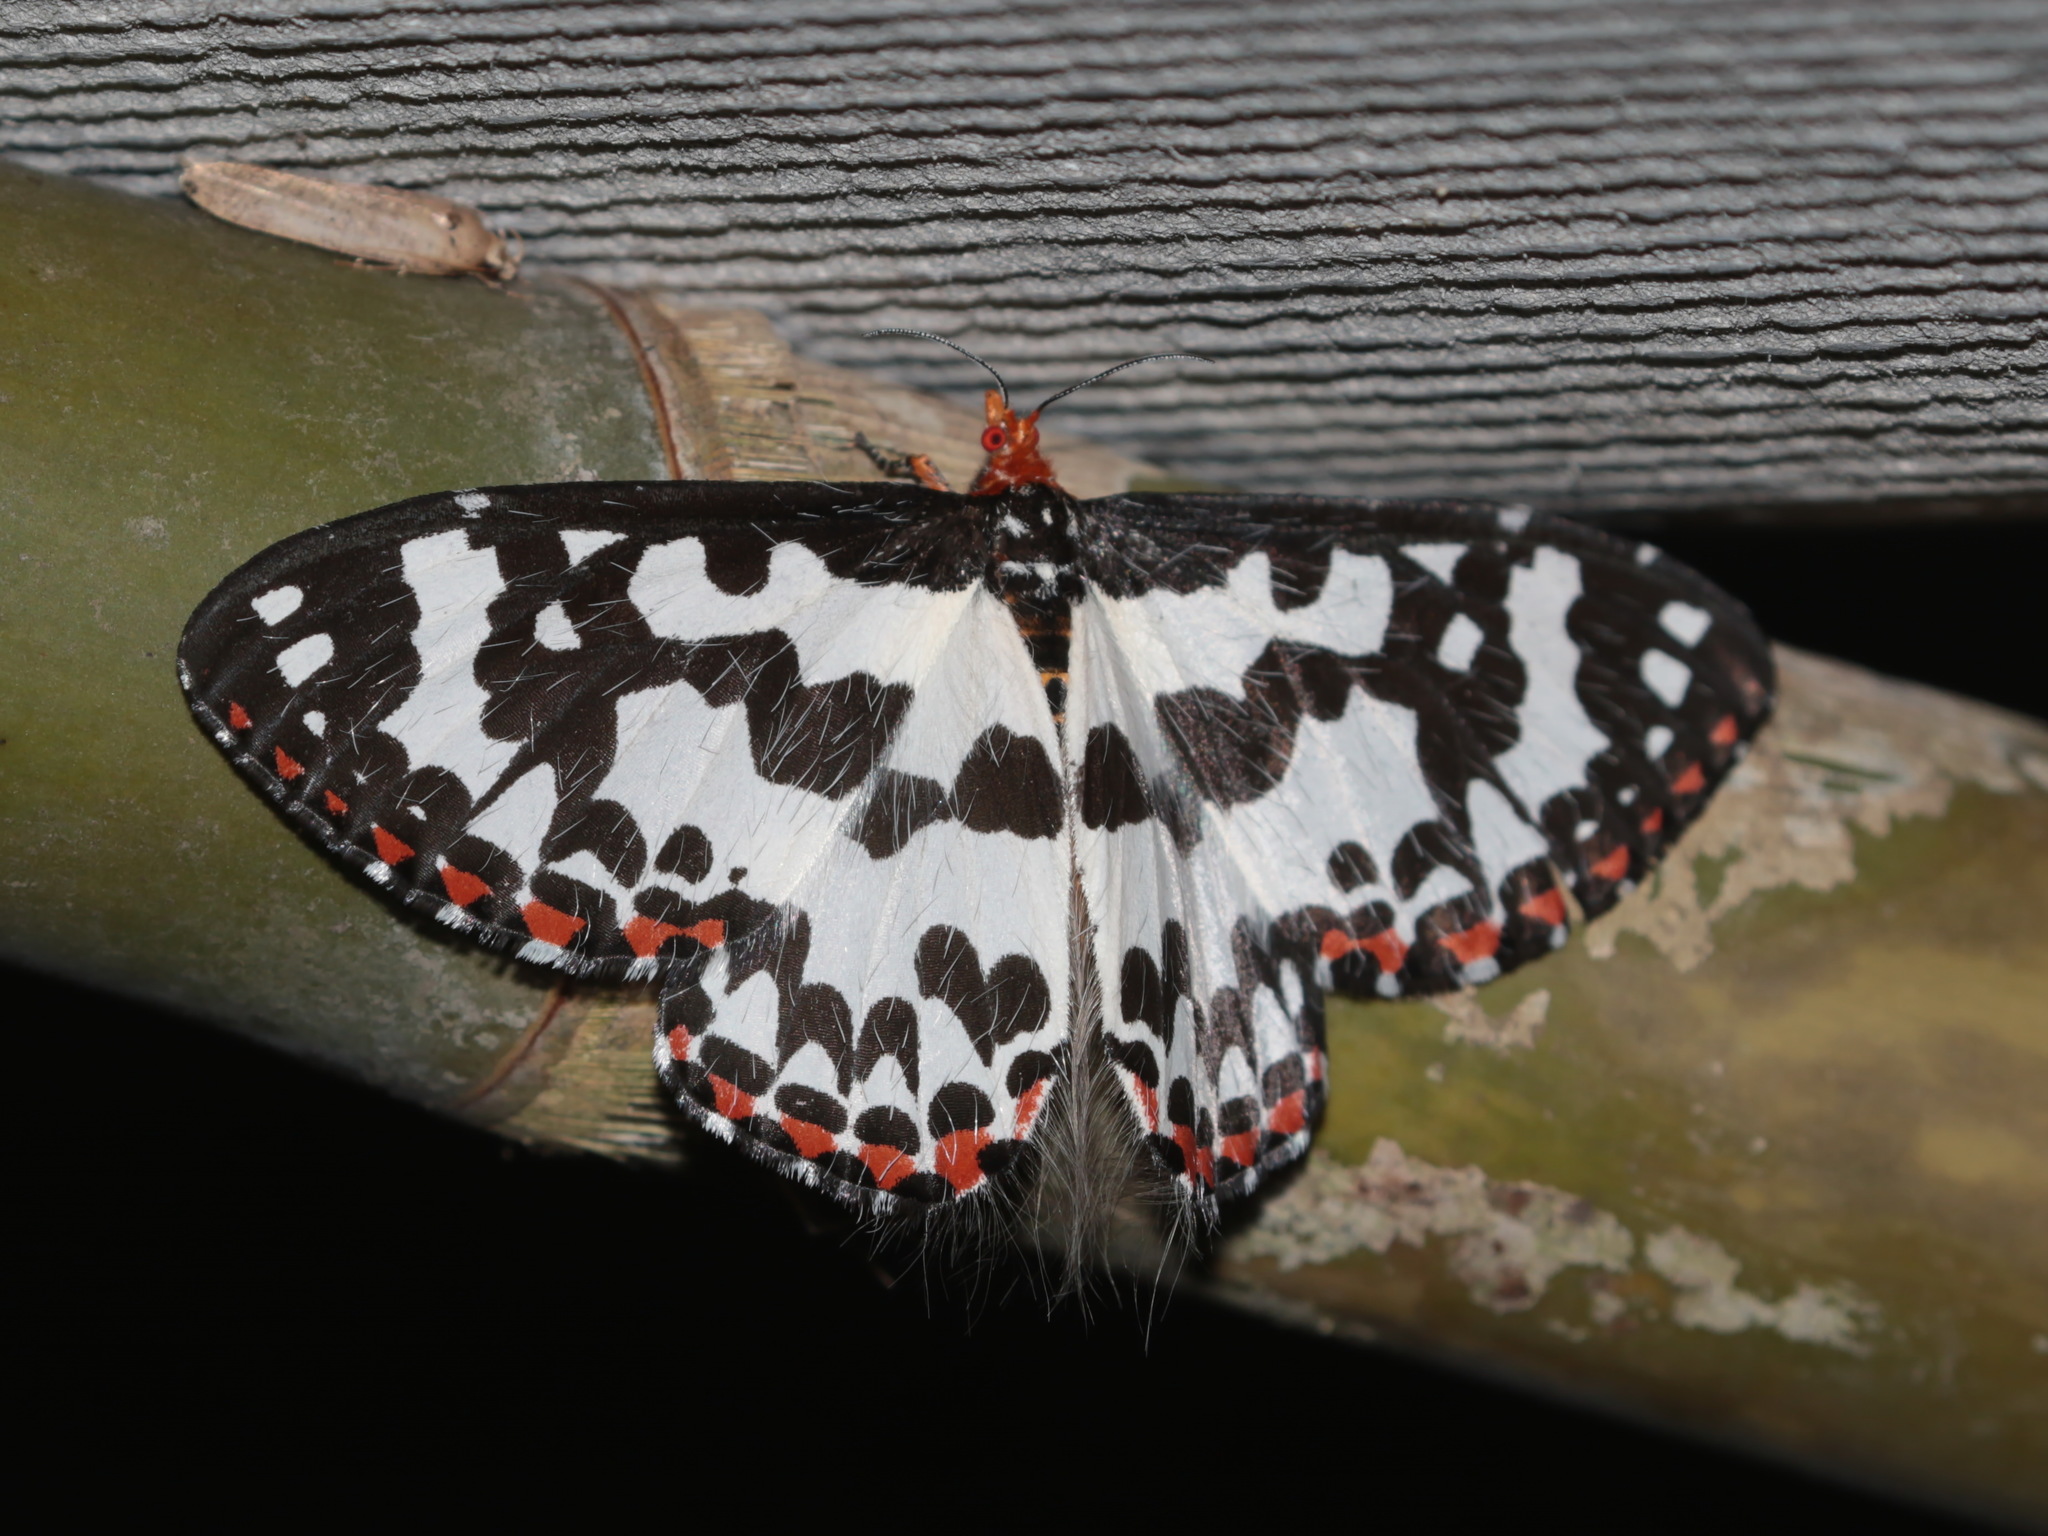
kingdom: Animalia
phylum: Arthropoda
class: Insecta
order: Lepidoptera
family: Callidulidae
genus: Pterothysanus
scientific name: Pterothysanus laticilia
